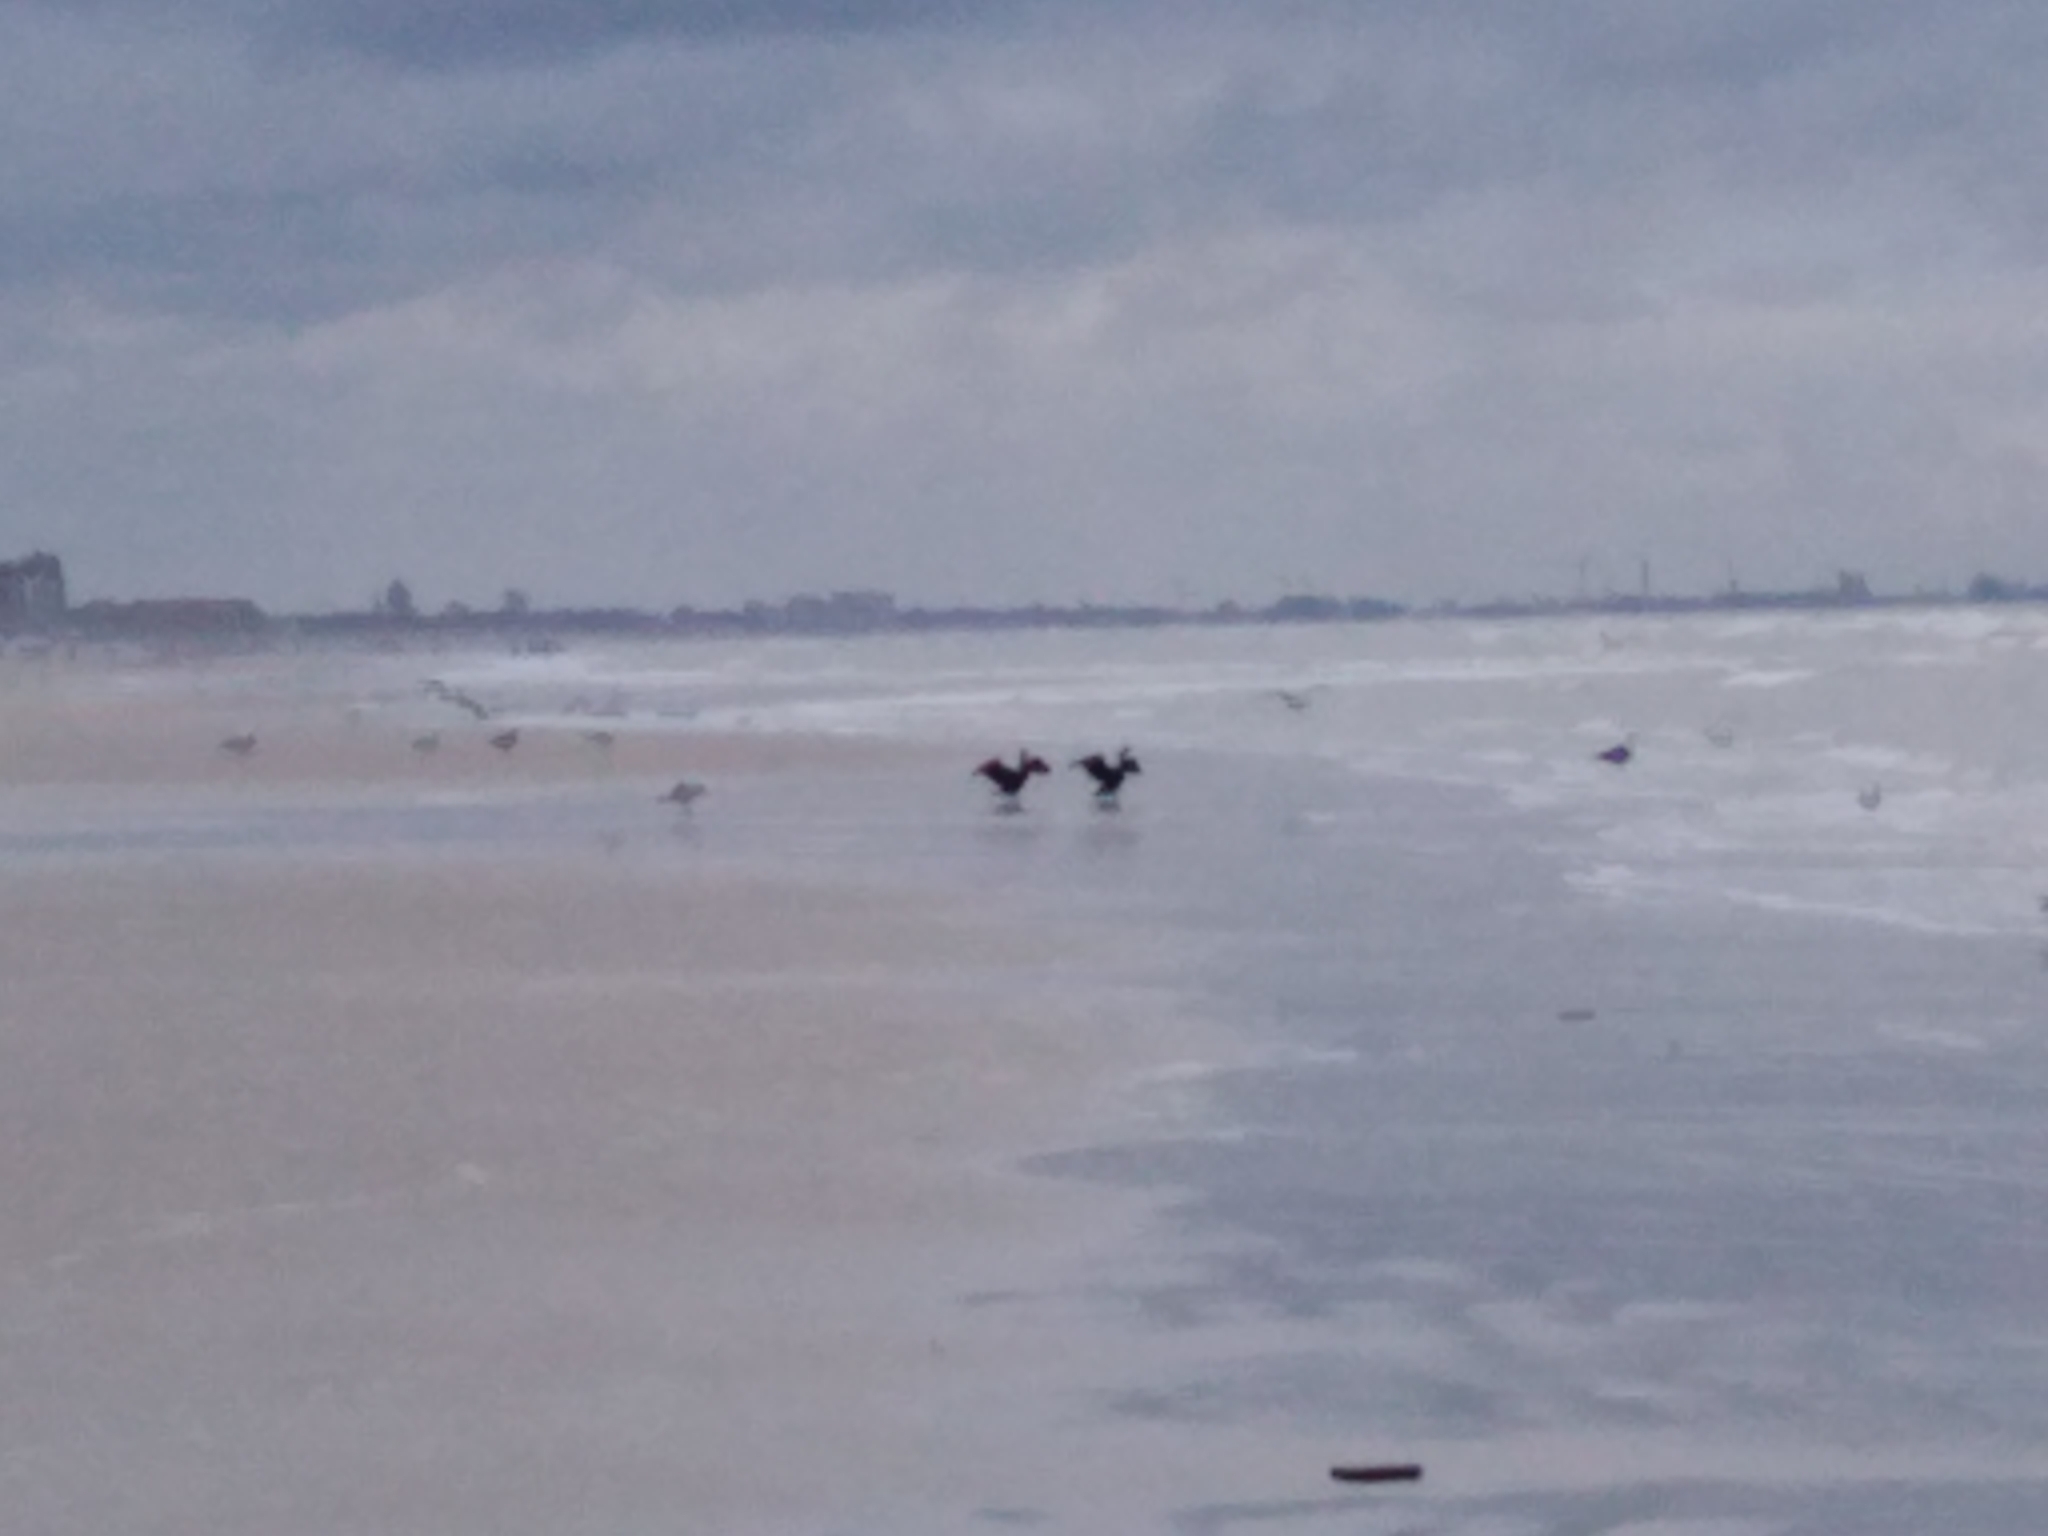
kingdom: Animalia
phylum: Chordata
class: Aves
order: Suliformes
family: Phalacrocoracidae
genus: Phalacrocorax
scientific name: Phalacrocorax carbo
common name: Great cormorant
